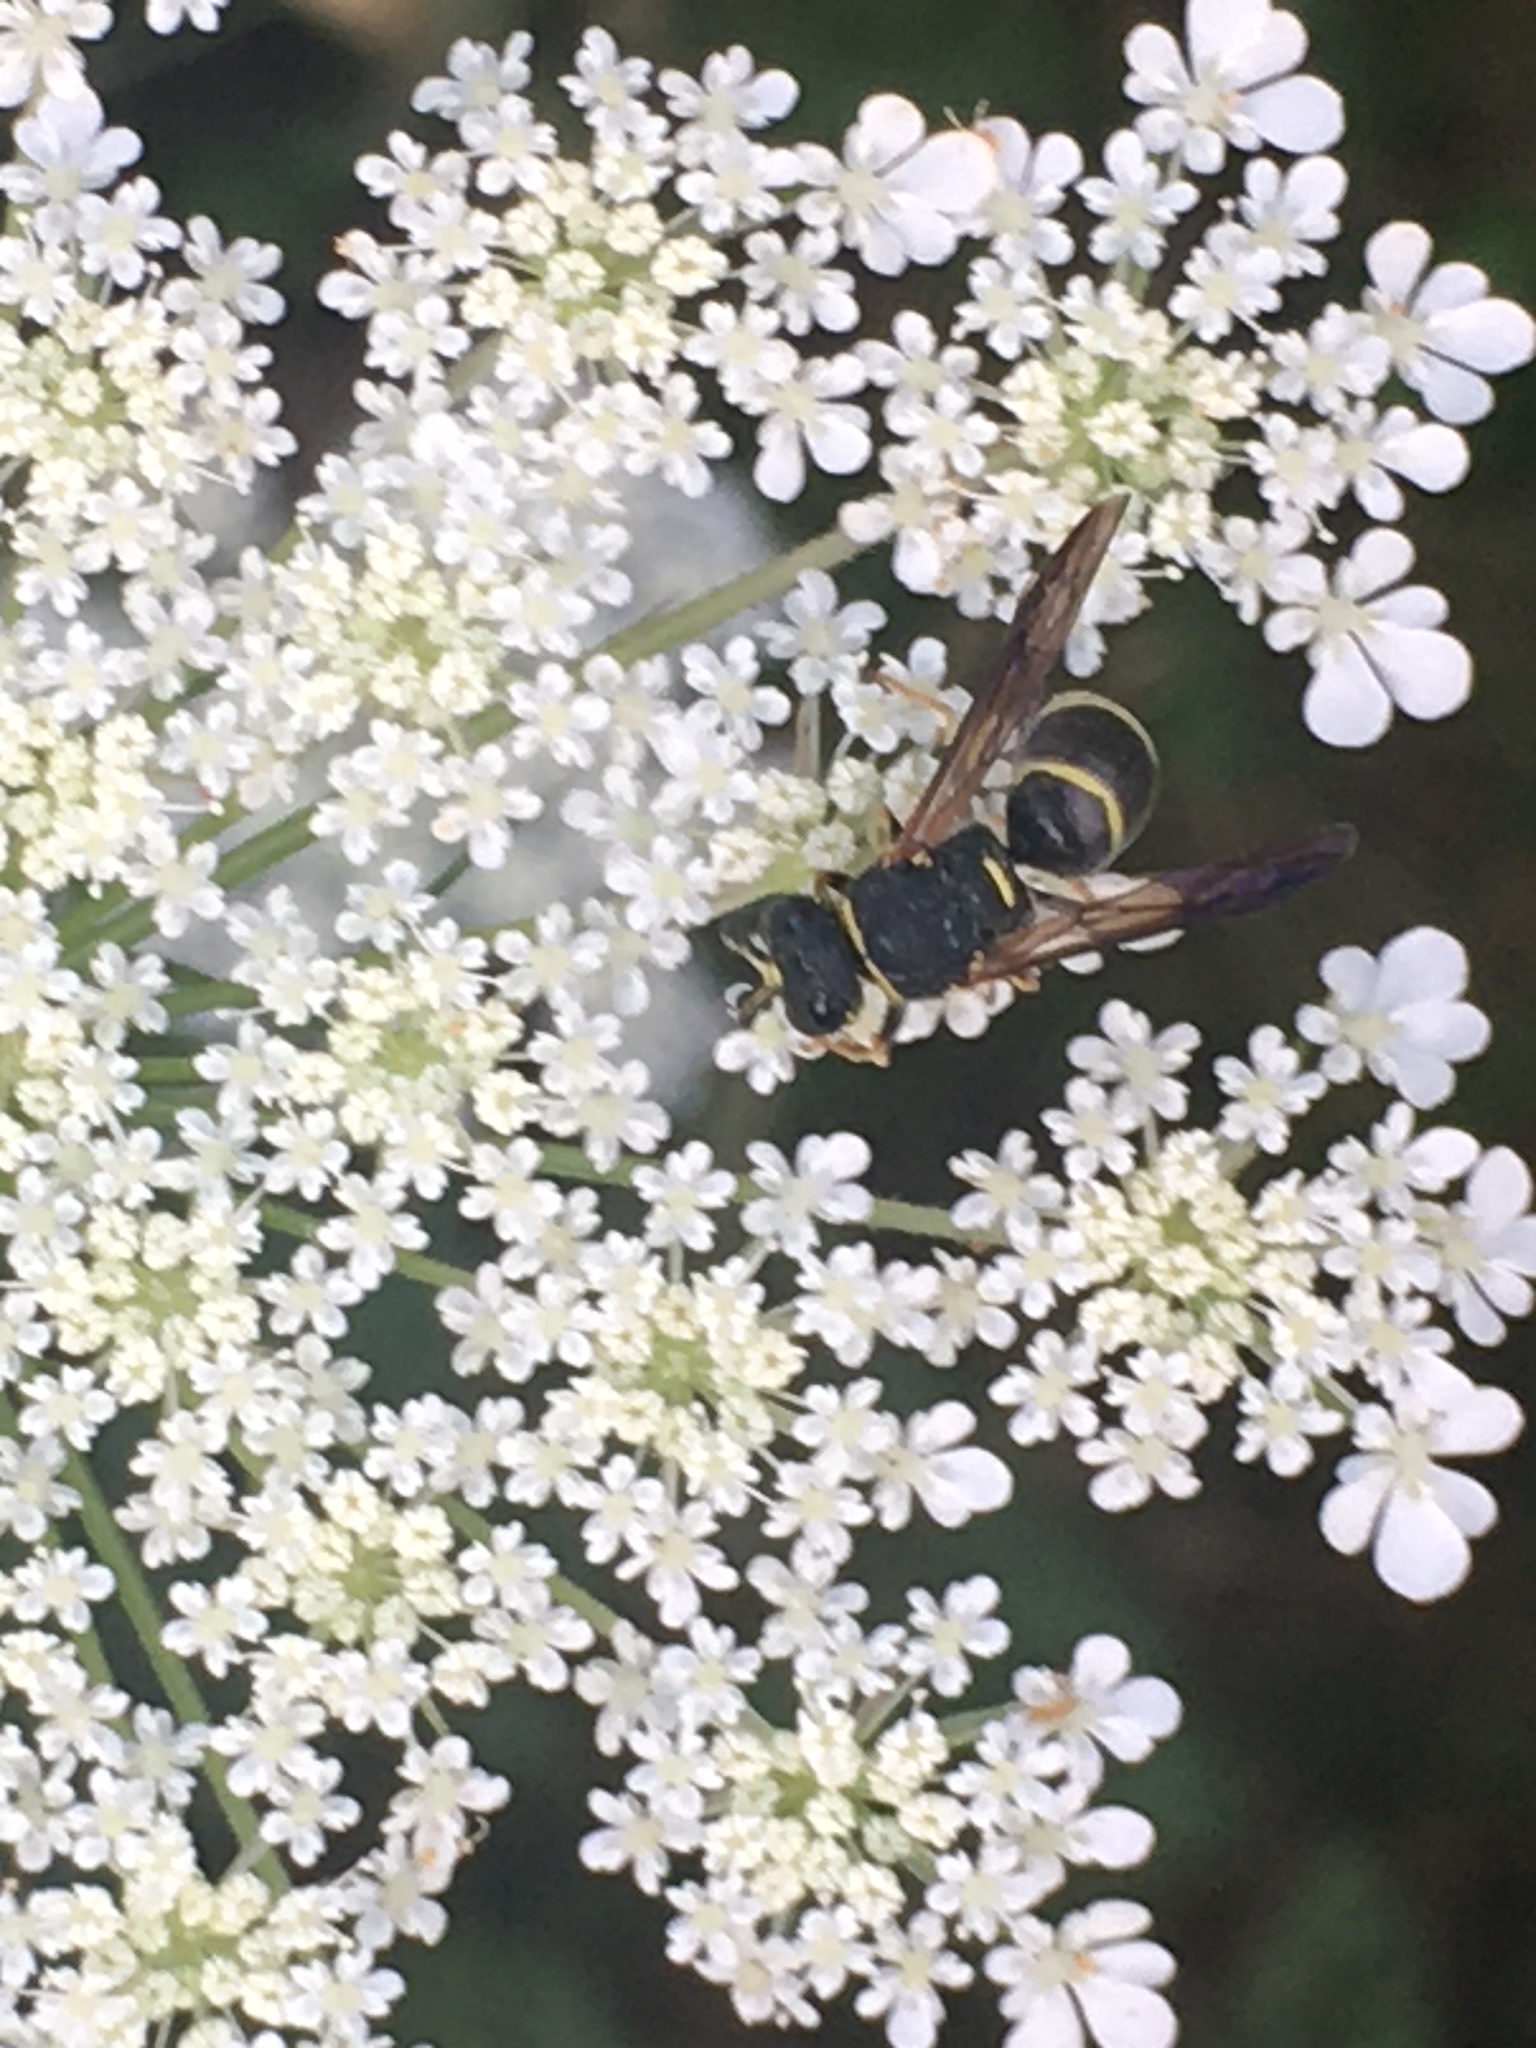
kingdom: Animalia
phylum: Arthropoda
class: Insecta
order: Hymenoptera
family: Eumenidae
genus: Euodynerus
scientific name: Euodynerus
